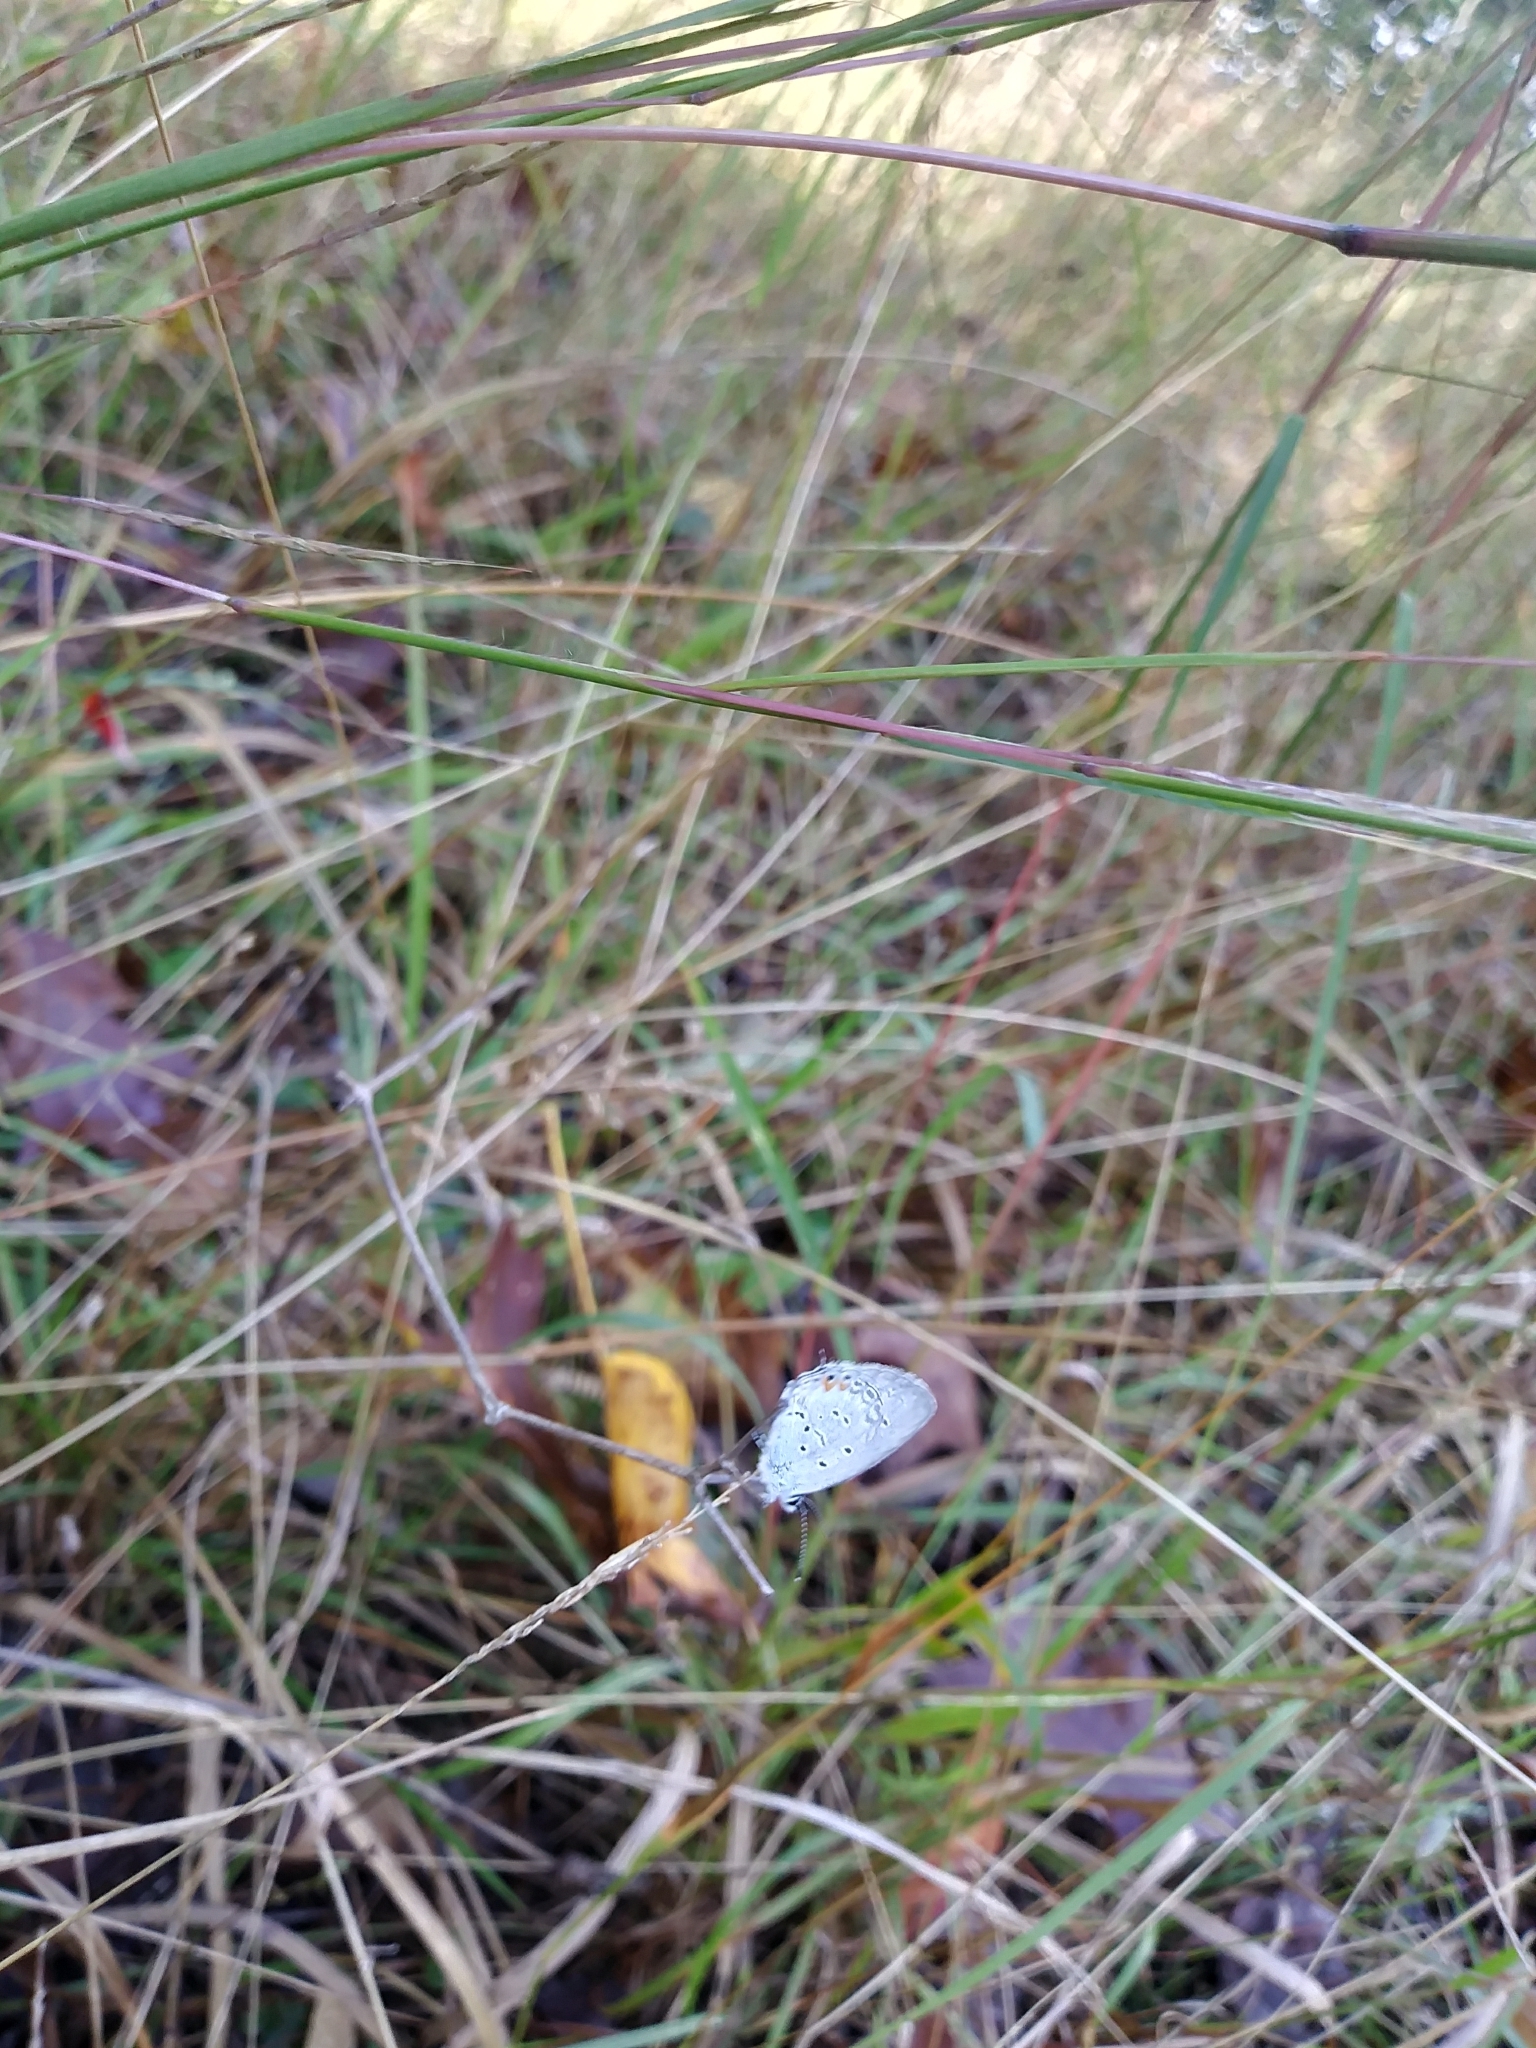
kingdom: Animalia
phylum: Arthropoda
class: Insecta
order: Lepidoptera
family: Lycaenidae
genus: Elkalyce
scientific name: Elkalyce comyntas
